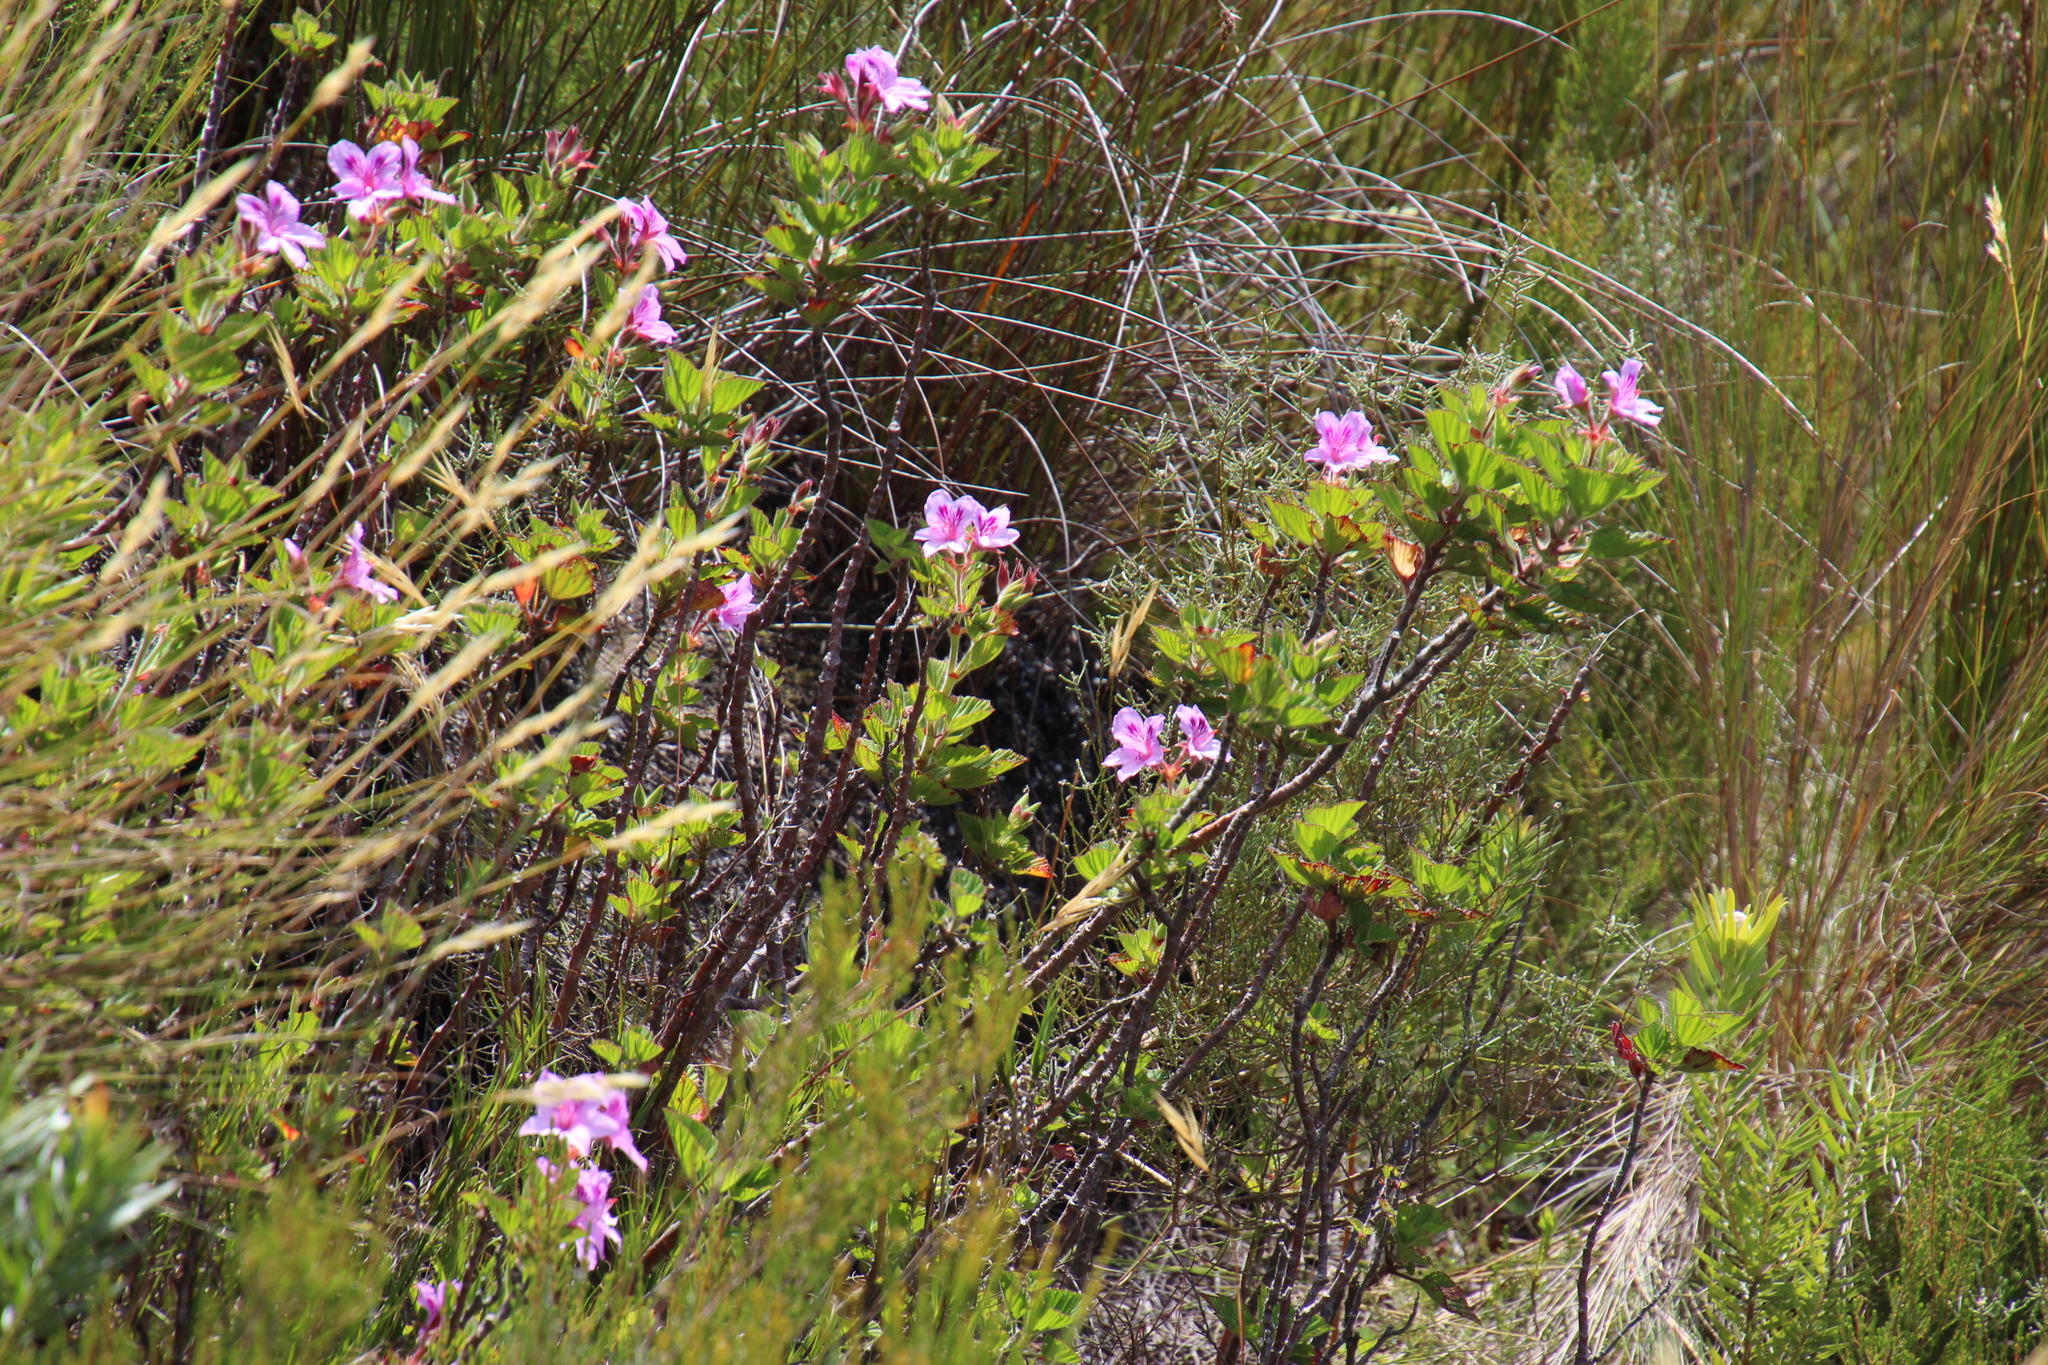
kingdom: Plantae
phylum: Tracheophyta
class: Magnoliopsida
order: Geraniales
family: Geraniaceae
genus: Pelargonium
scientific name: Pelargonium cucullatum
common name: Tree pelargonium
